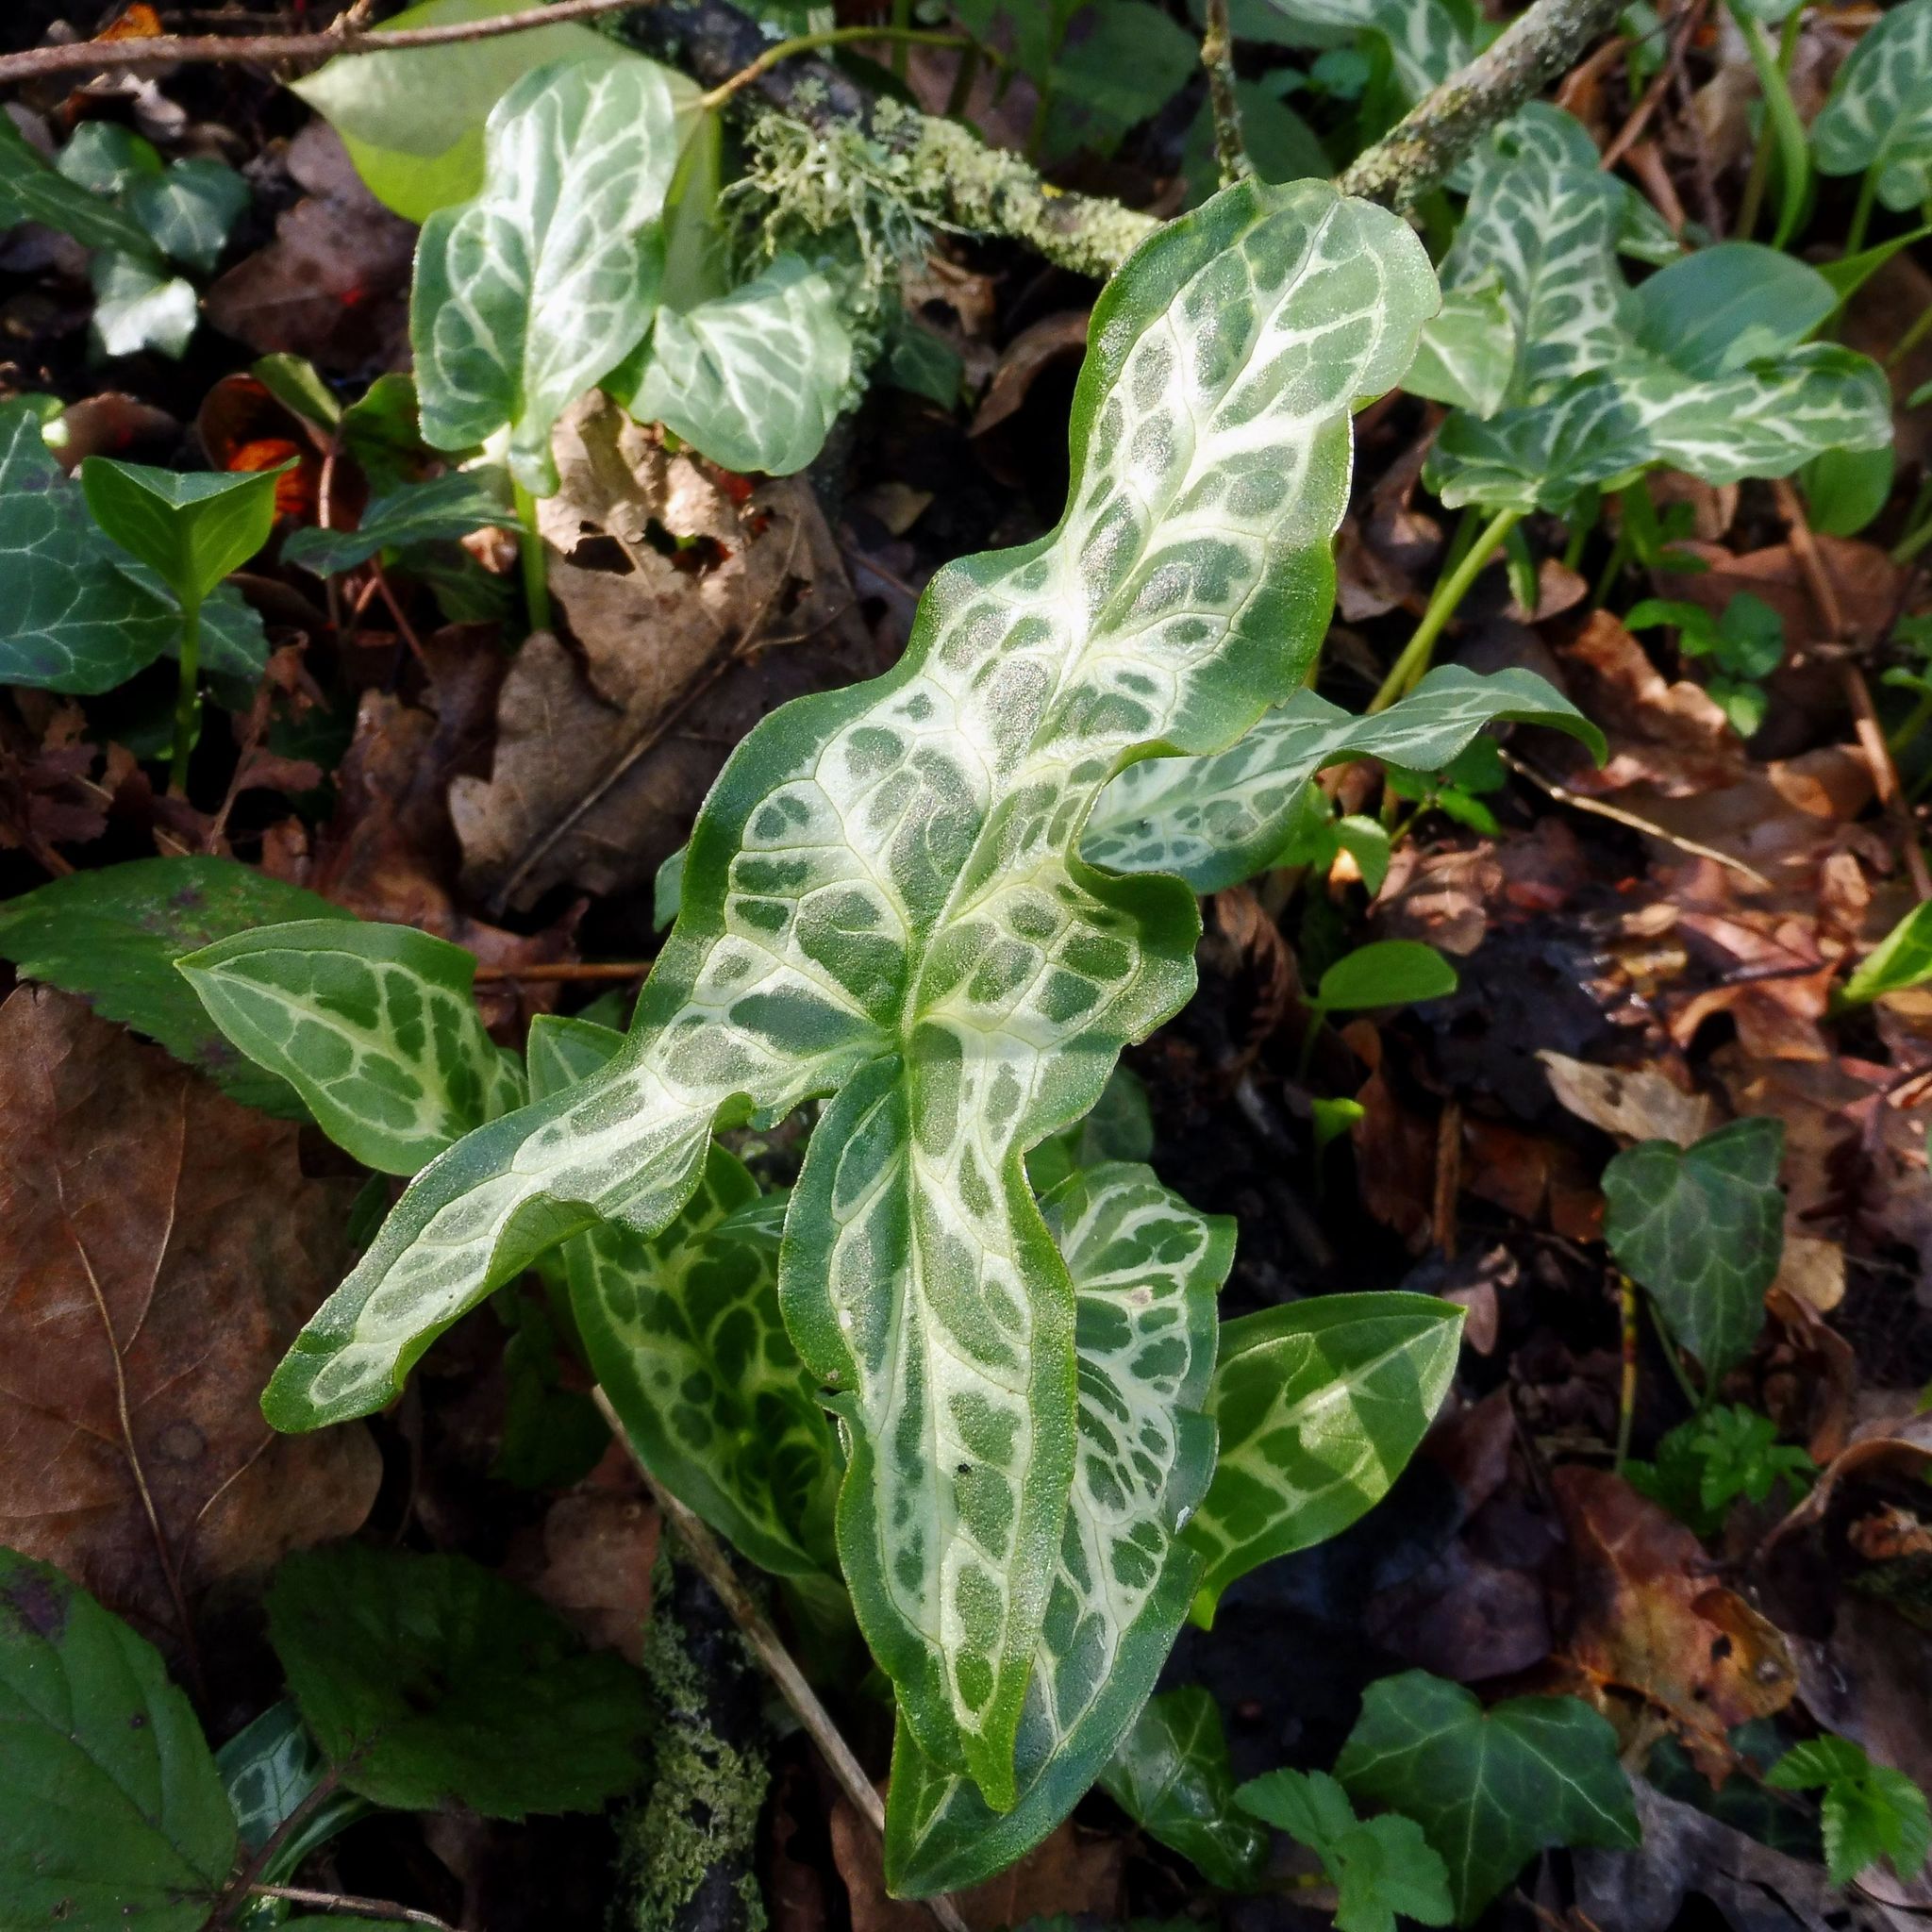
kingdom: Plantae
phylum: Tracheophyta
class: Liliopsida
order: Alismatales
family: Araceae
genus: Arum
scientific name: Arum italicum
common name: Italian lords-and-ladies
